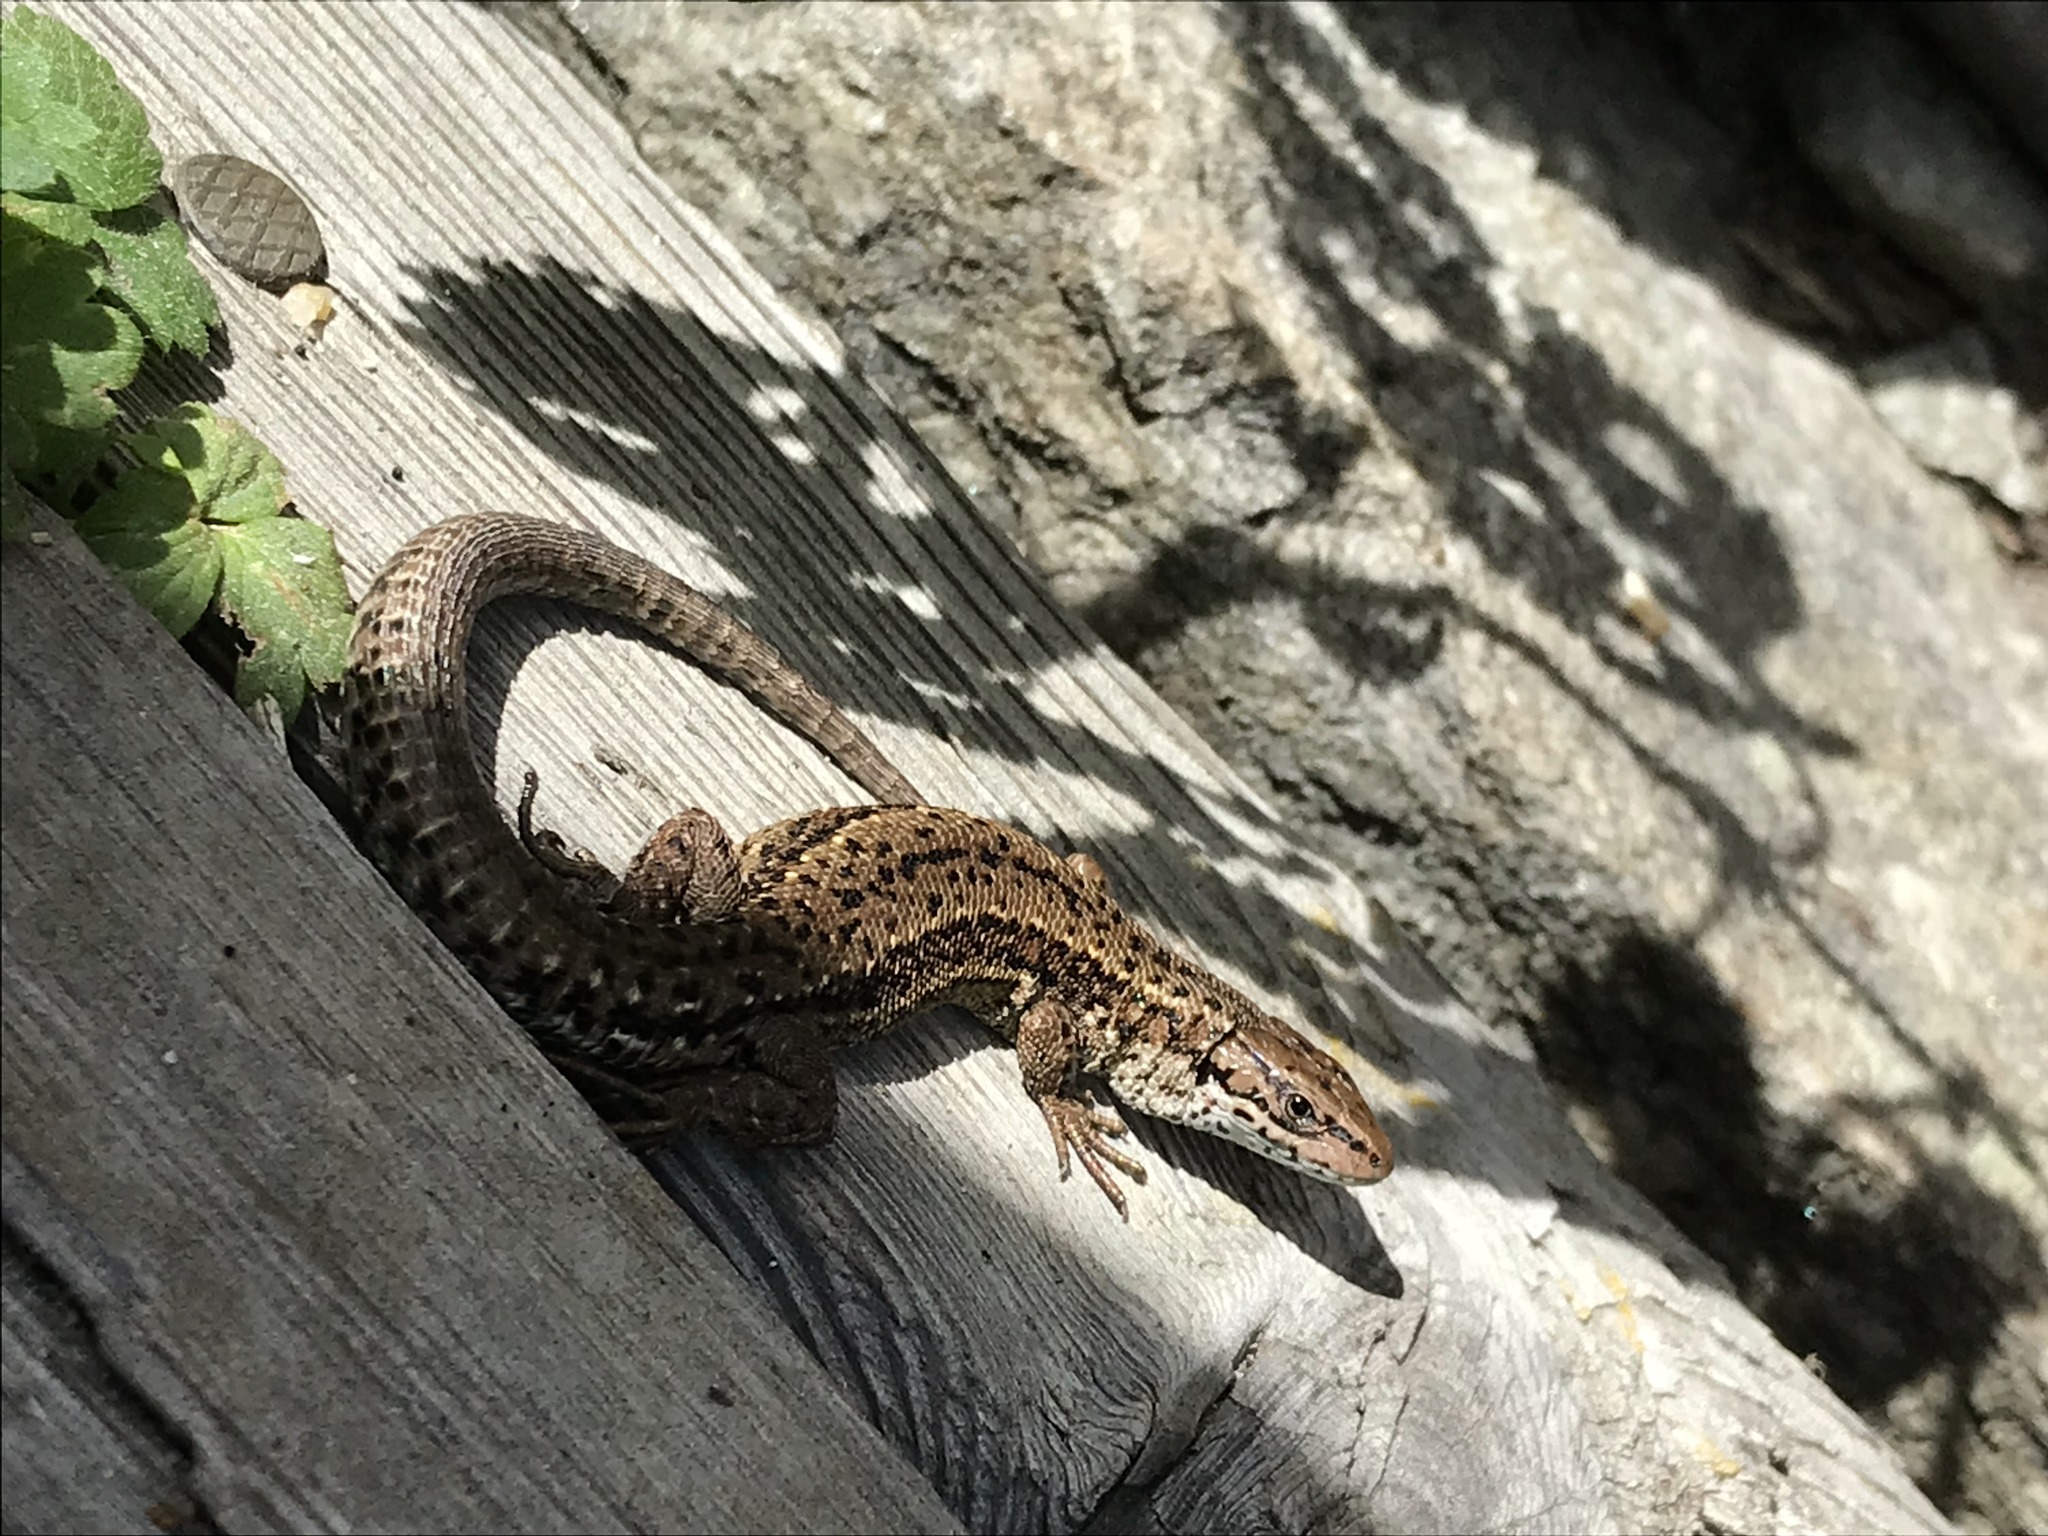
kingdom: Animalia
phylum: Chordata
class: Squamata
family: Lacertidae
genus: Zootoca
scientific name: Zootoca vivipara
